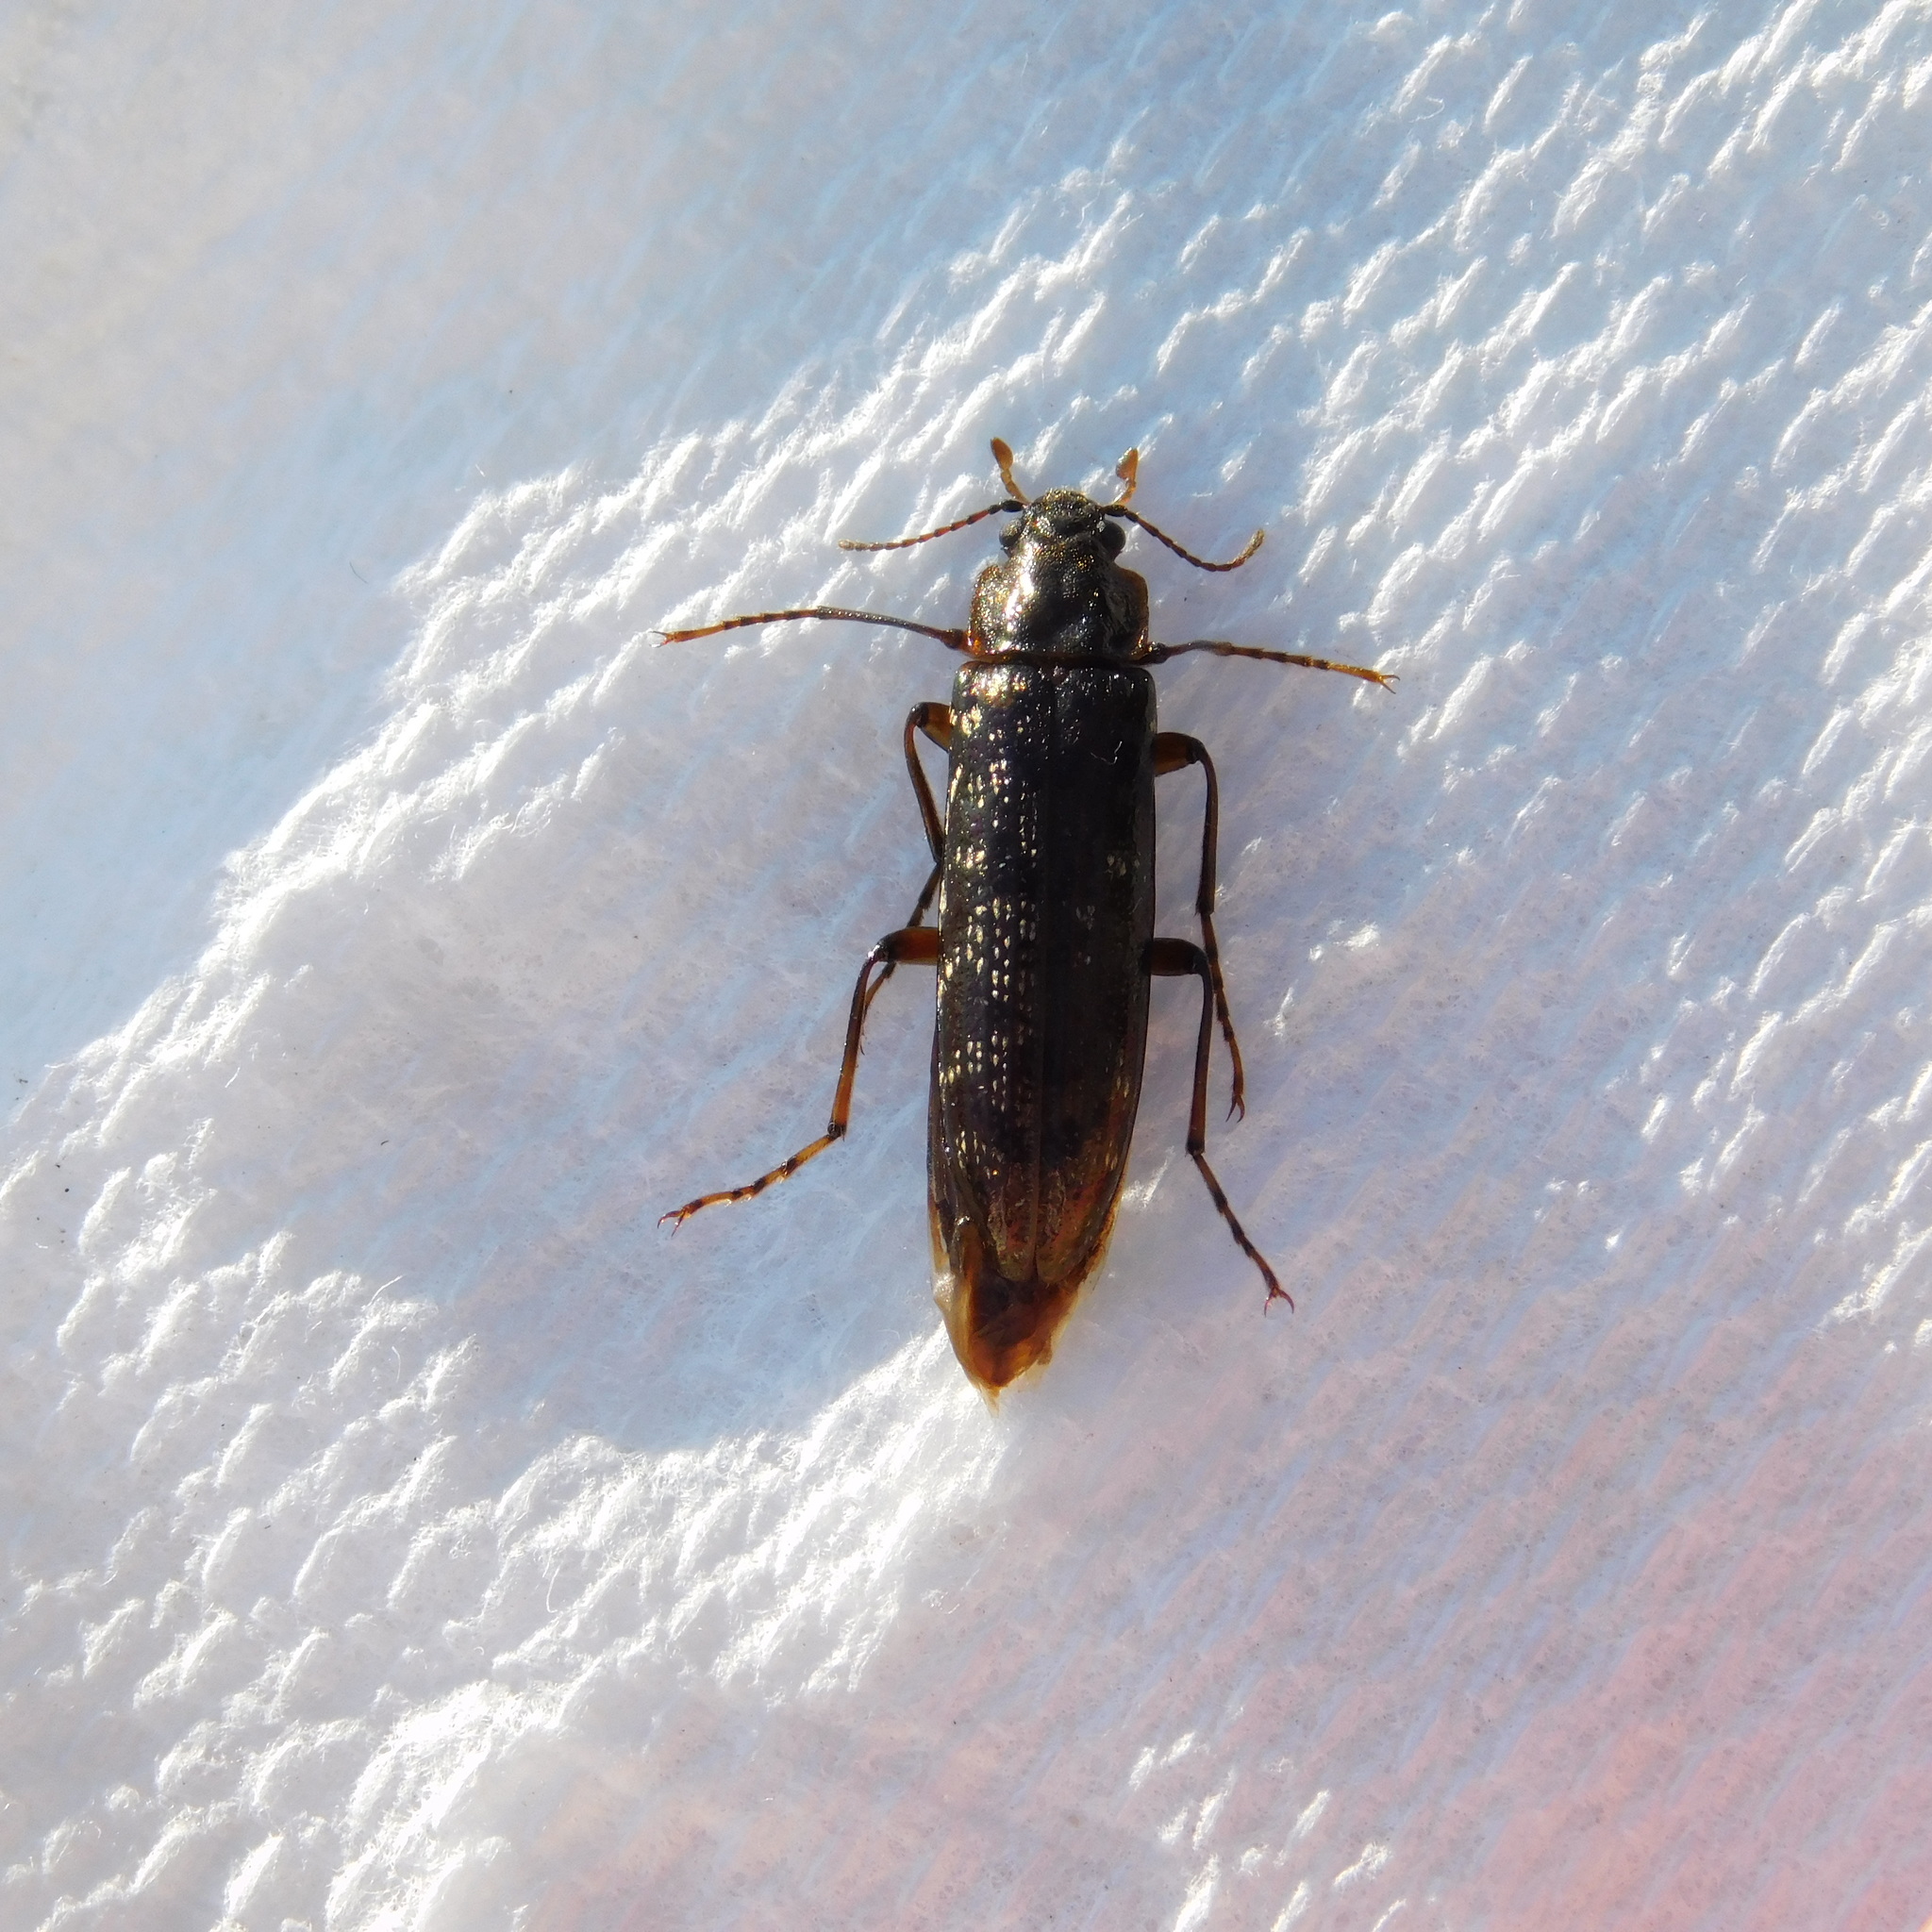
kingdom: Animalia
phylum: Arthropoda
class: Insecta
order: Coleoptera
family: Chalcodryidae
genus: Chalcodrya
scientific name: Chalcodrya
